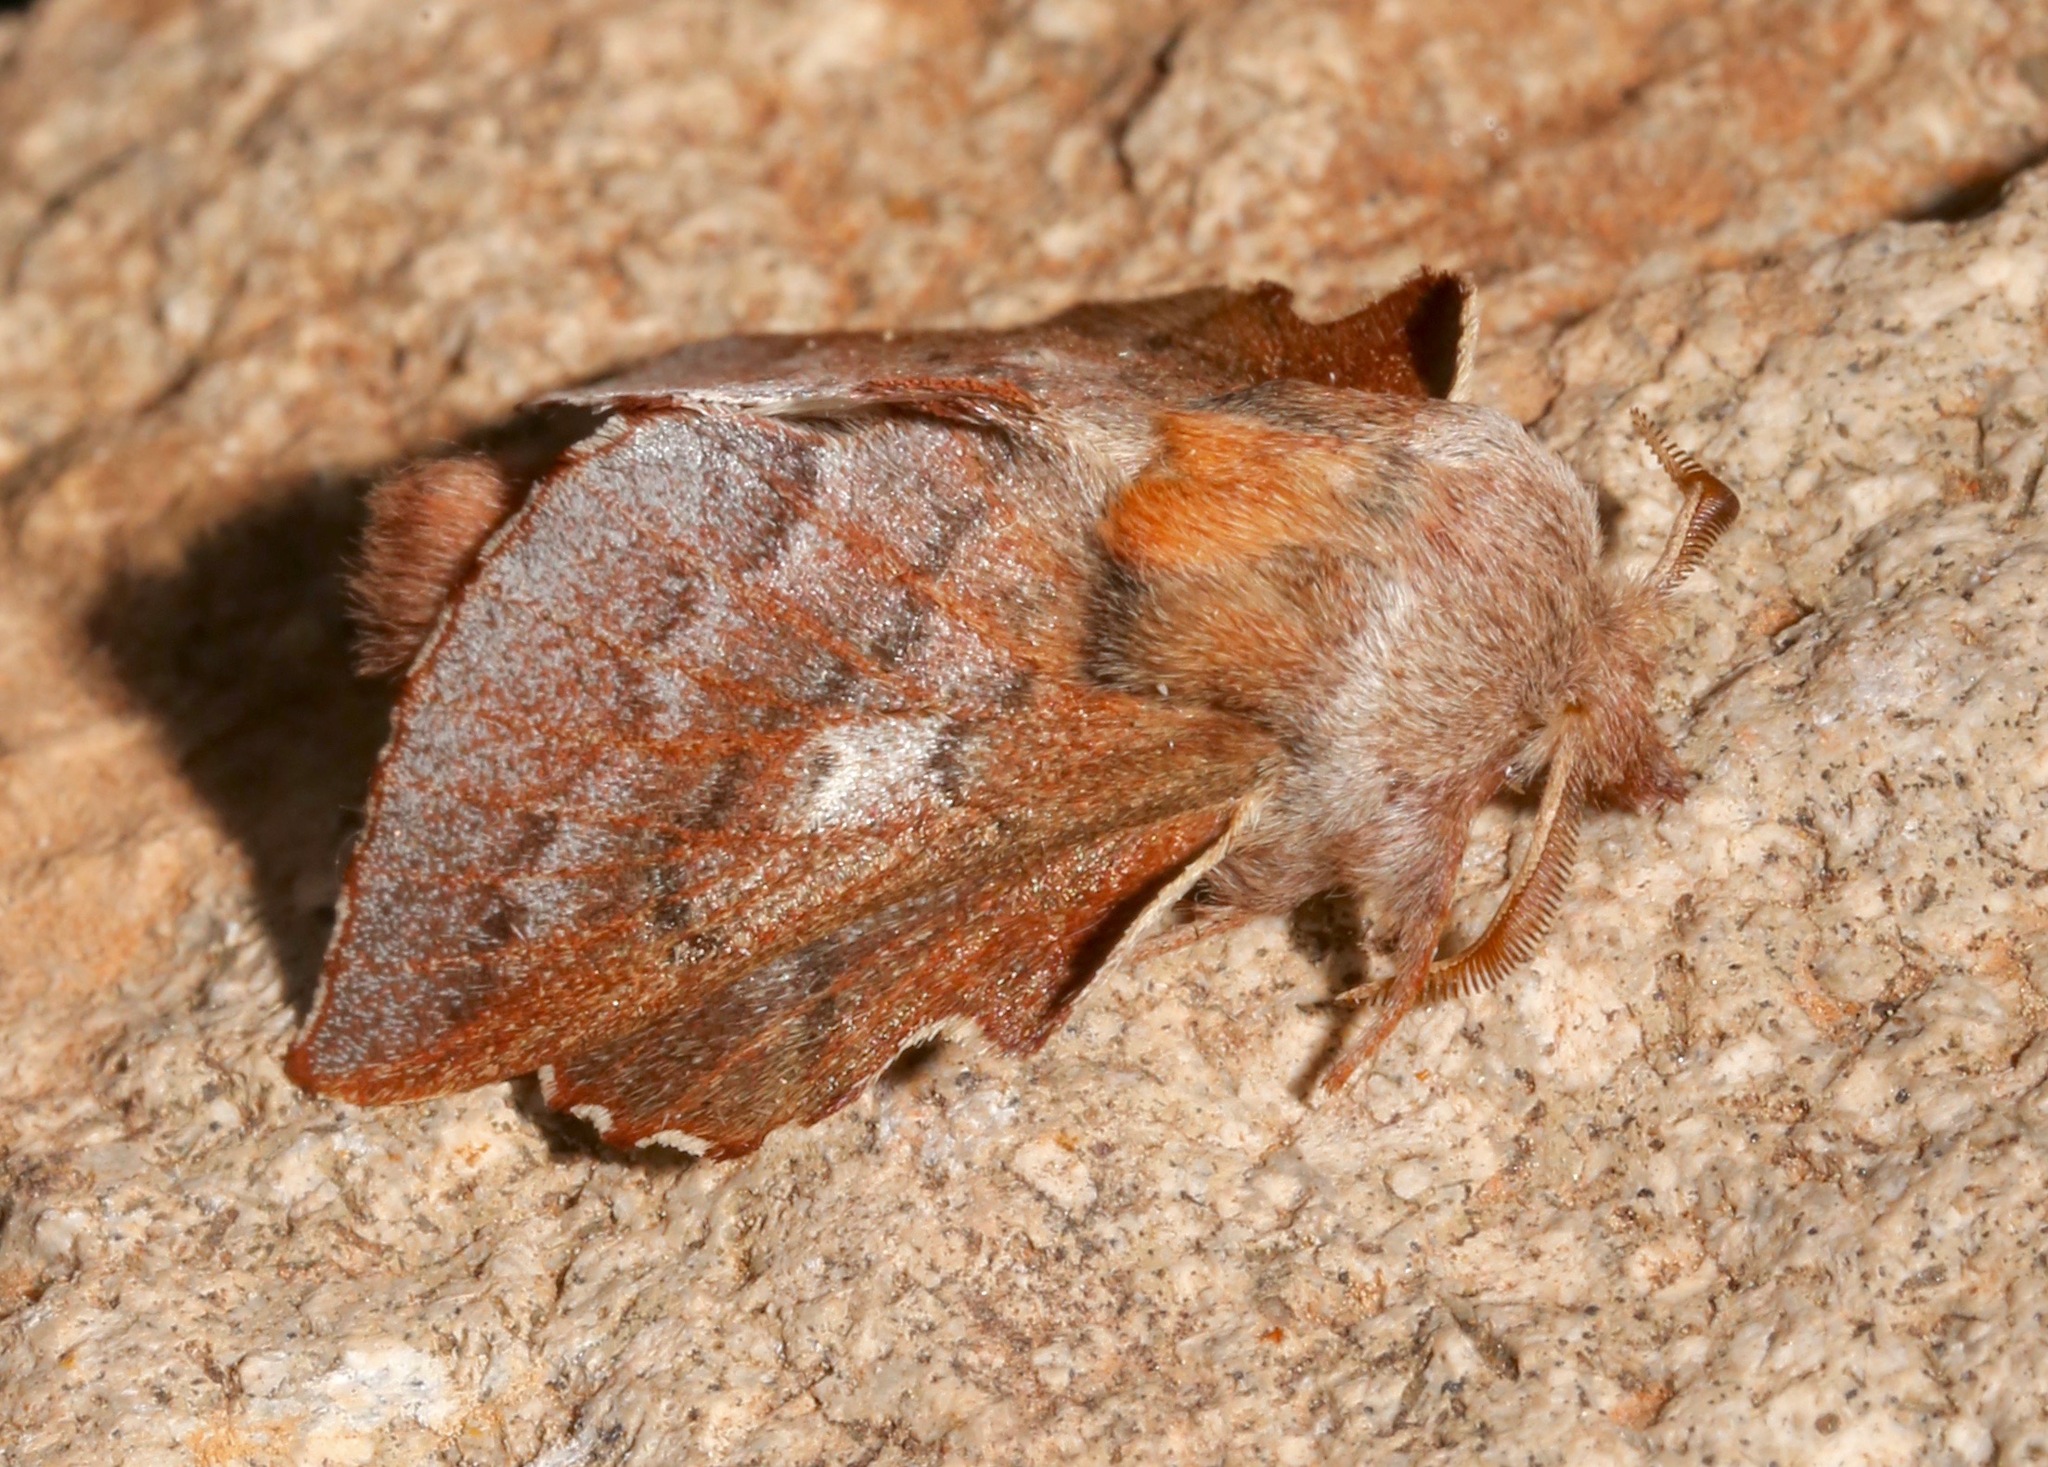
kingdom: Animalia
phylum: Arthropoda
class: Insecta
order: Lepidoptera
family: Lasiocampidae
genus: Phyllodesma
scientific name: Phyllodesma americana
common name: American lappet moth
